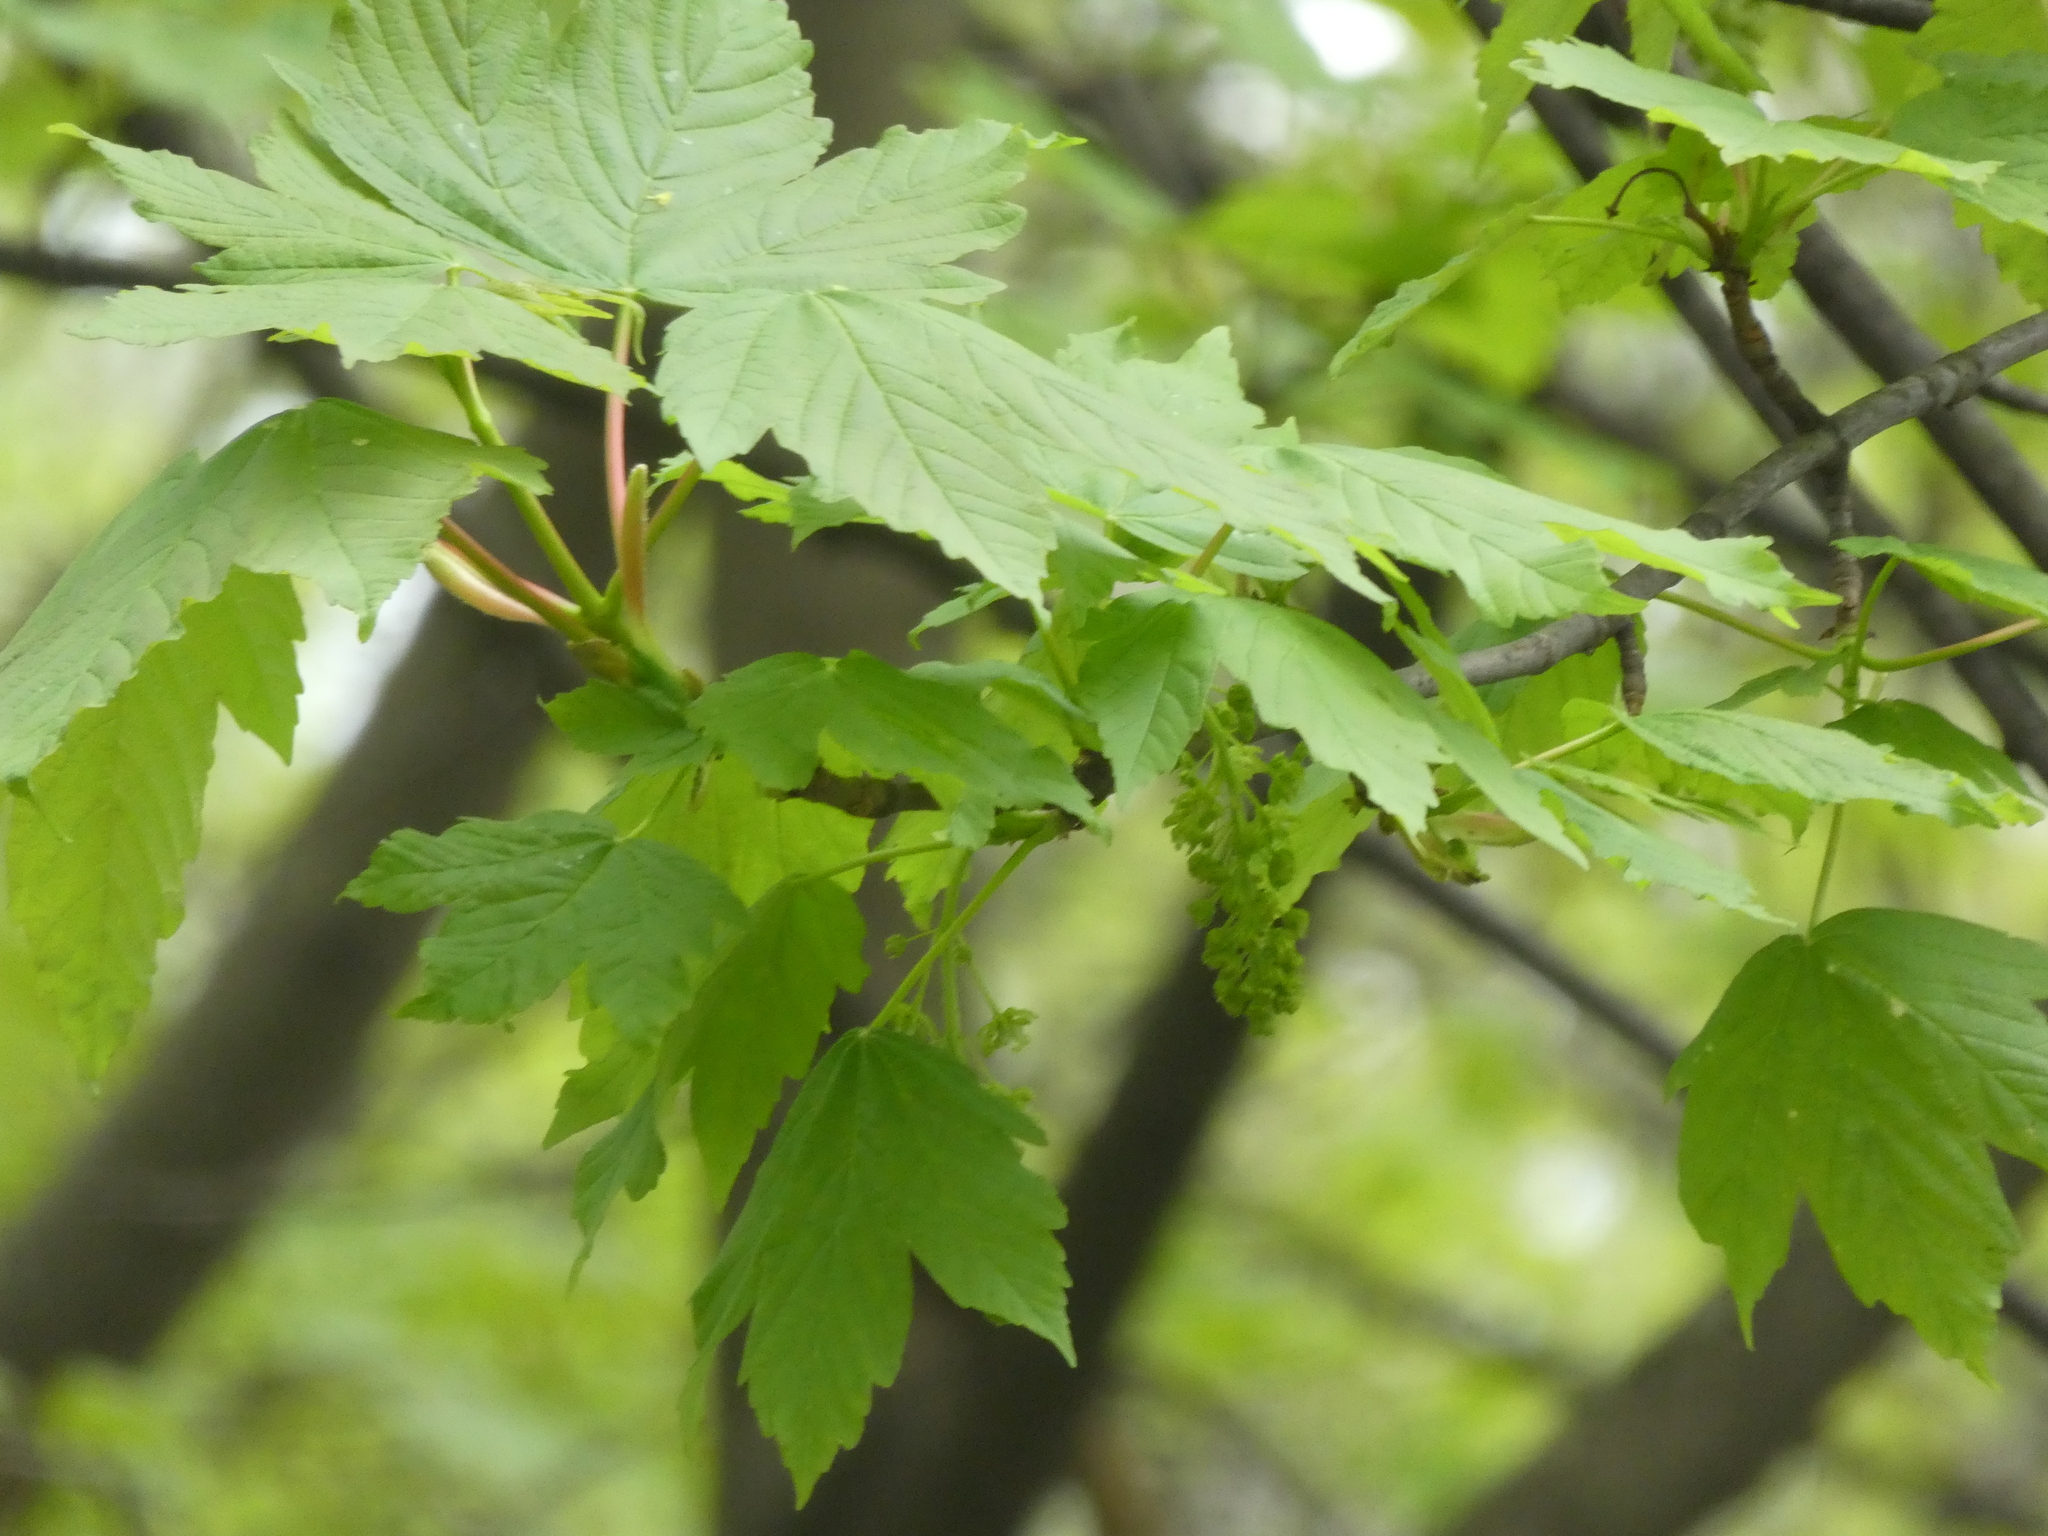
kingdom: Plantae
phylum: Tracheophyta
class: Magnoliopsida
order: Sapindales
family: Sapindaceae
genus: Acer
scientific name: Acer pseudoplatanus
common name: Sycamore
